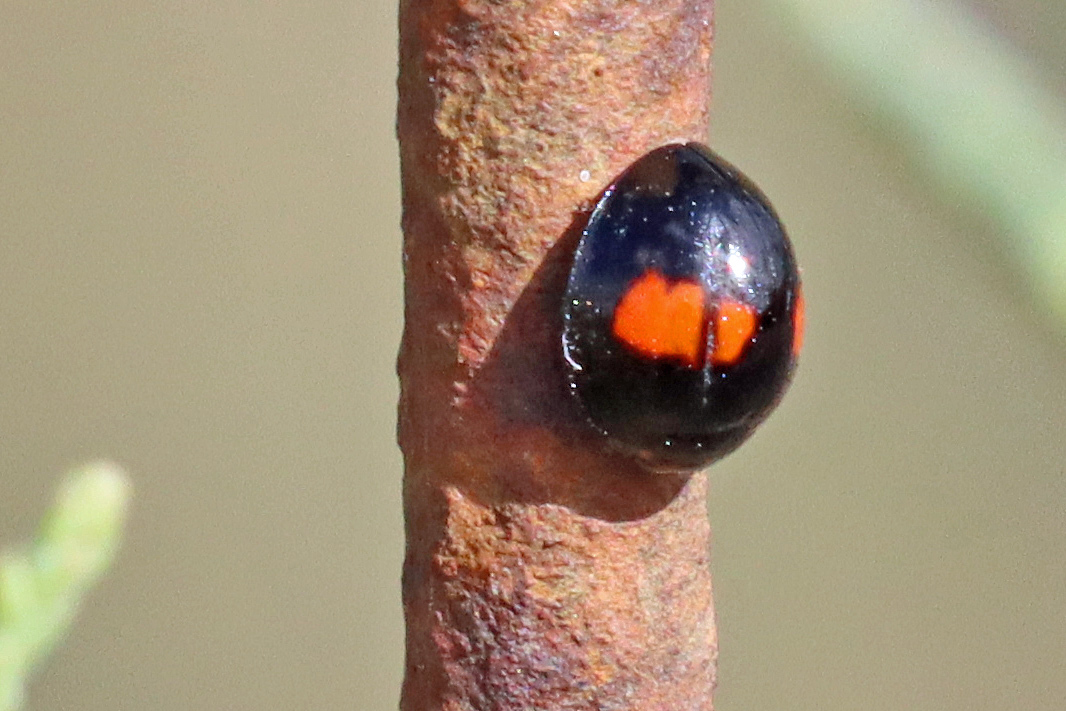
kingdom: Animalia
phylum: Arthropoda
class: Insecta
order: Coleoptera
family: Coccinellidae
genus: Chilocorus
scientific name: Chilocorus canariensis
